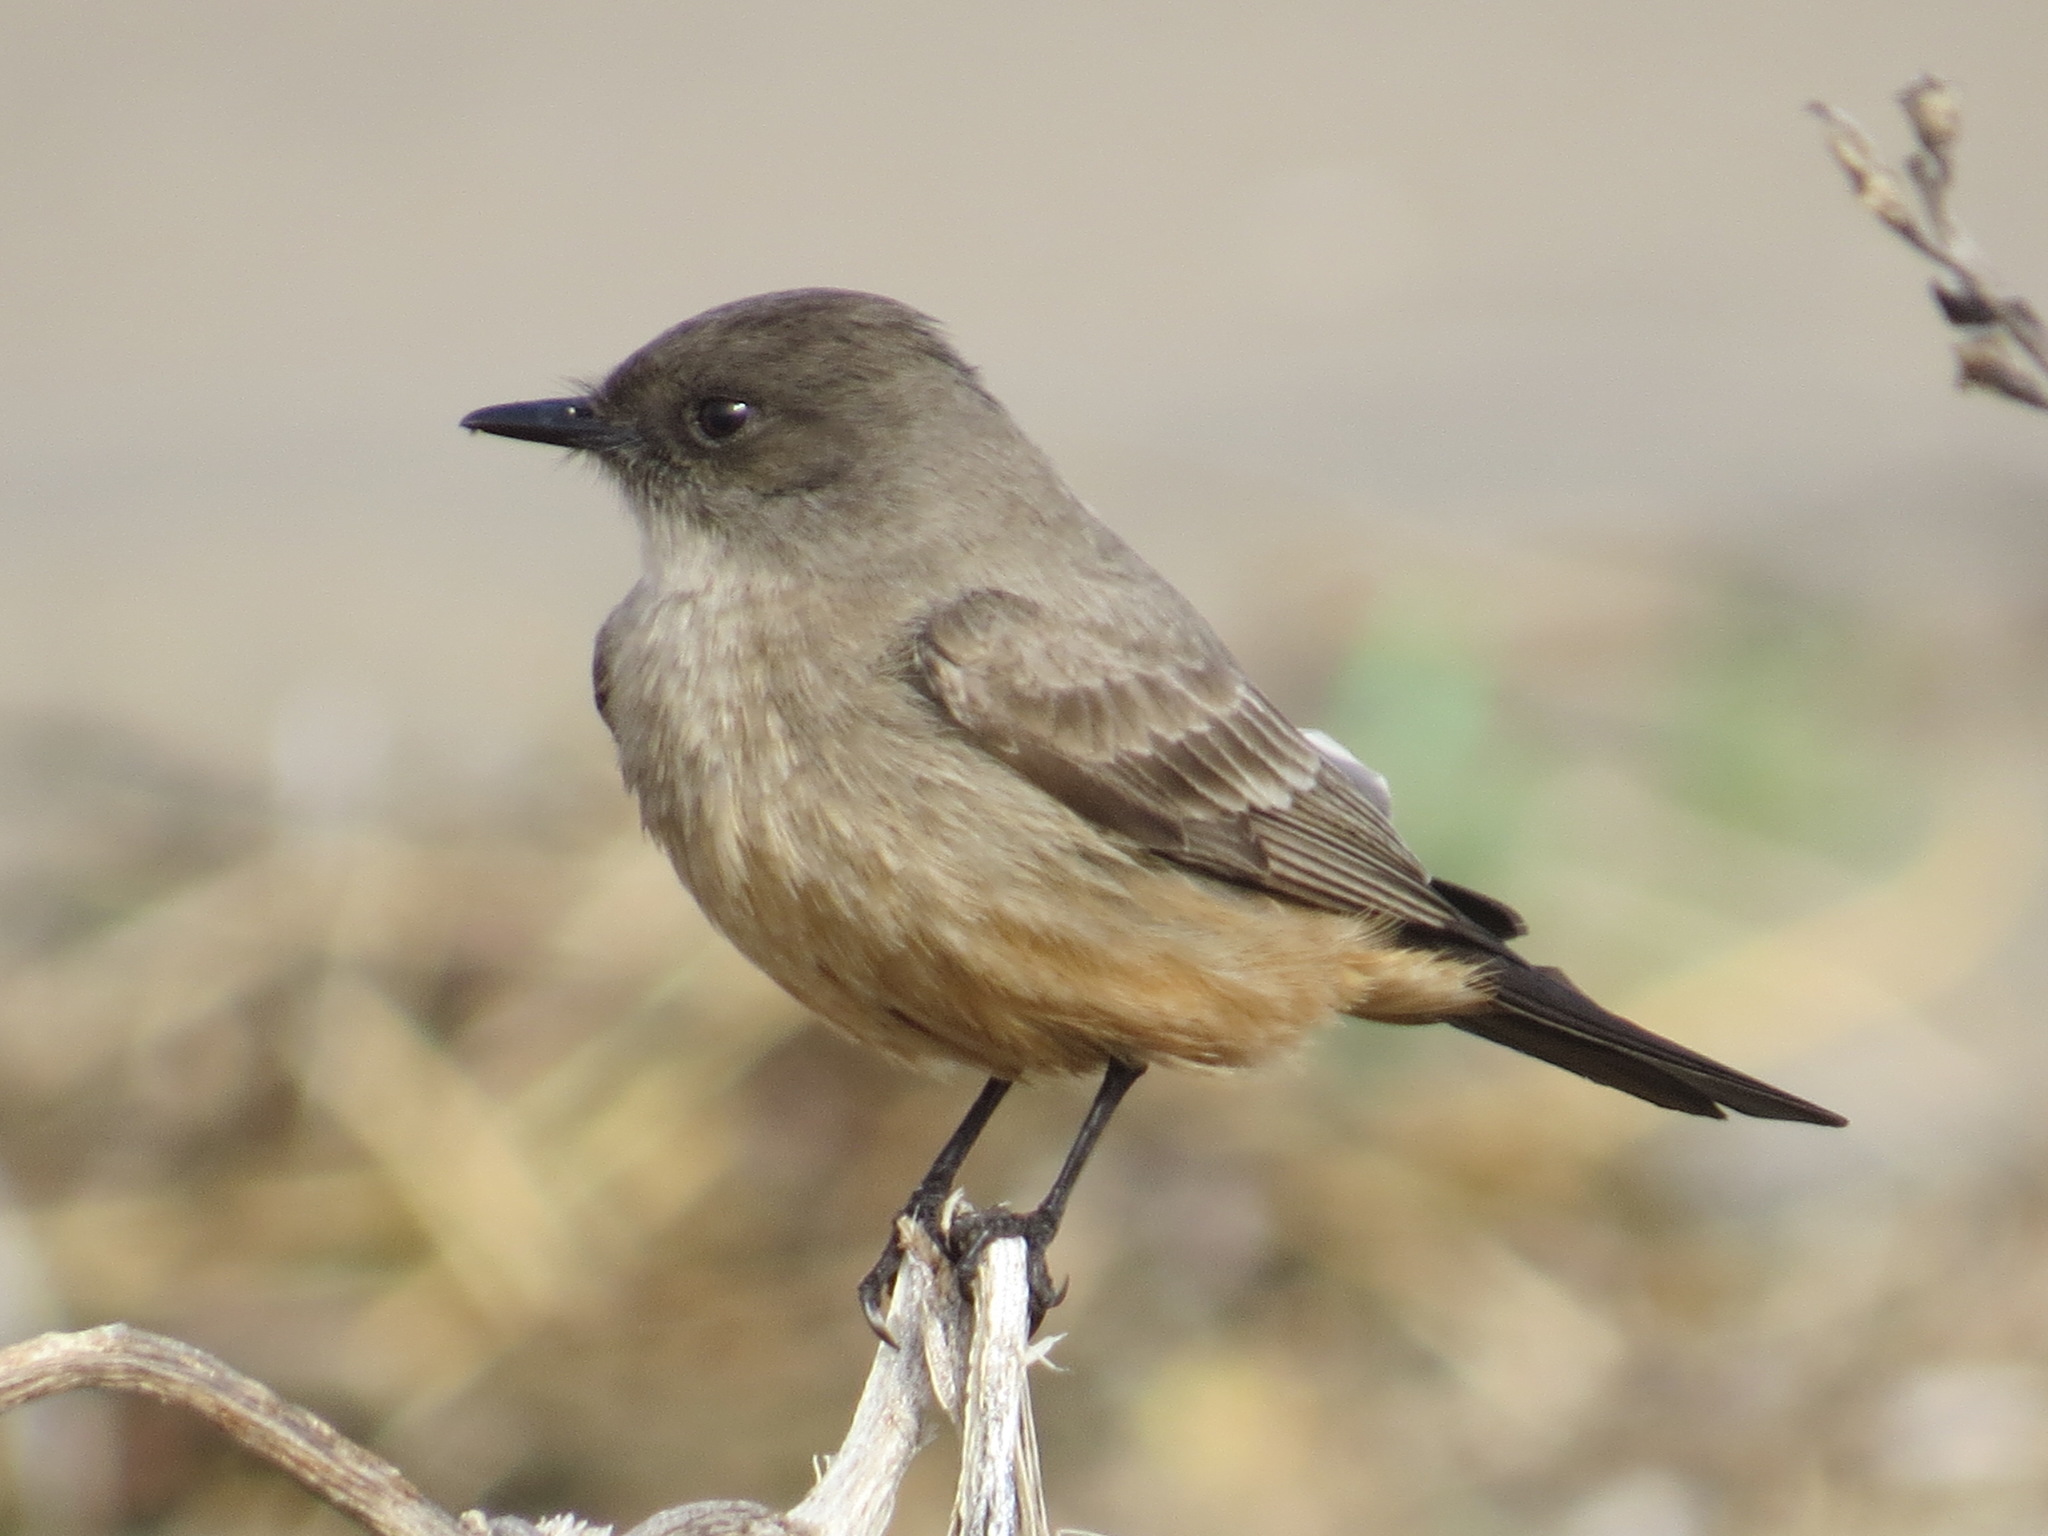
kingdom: Animalia
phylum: Chordata
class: Aves
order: Passeriformes
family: Tyrannidae
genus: Sayornis
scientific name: Sayornis saya
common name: Say's phoebe
